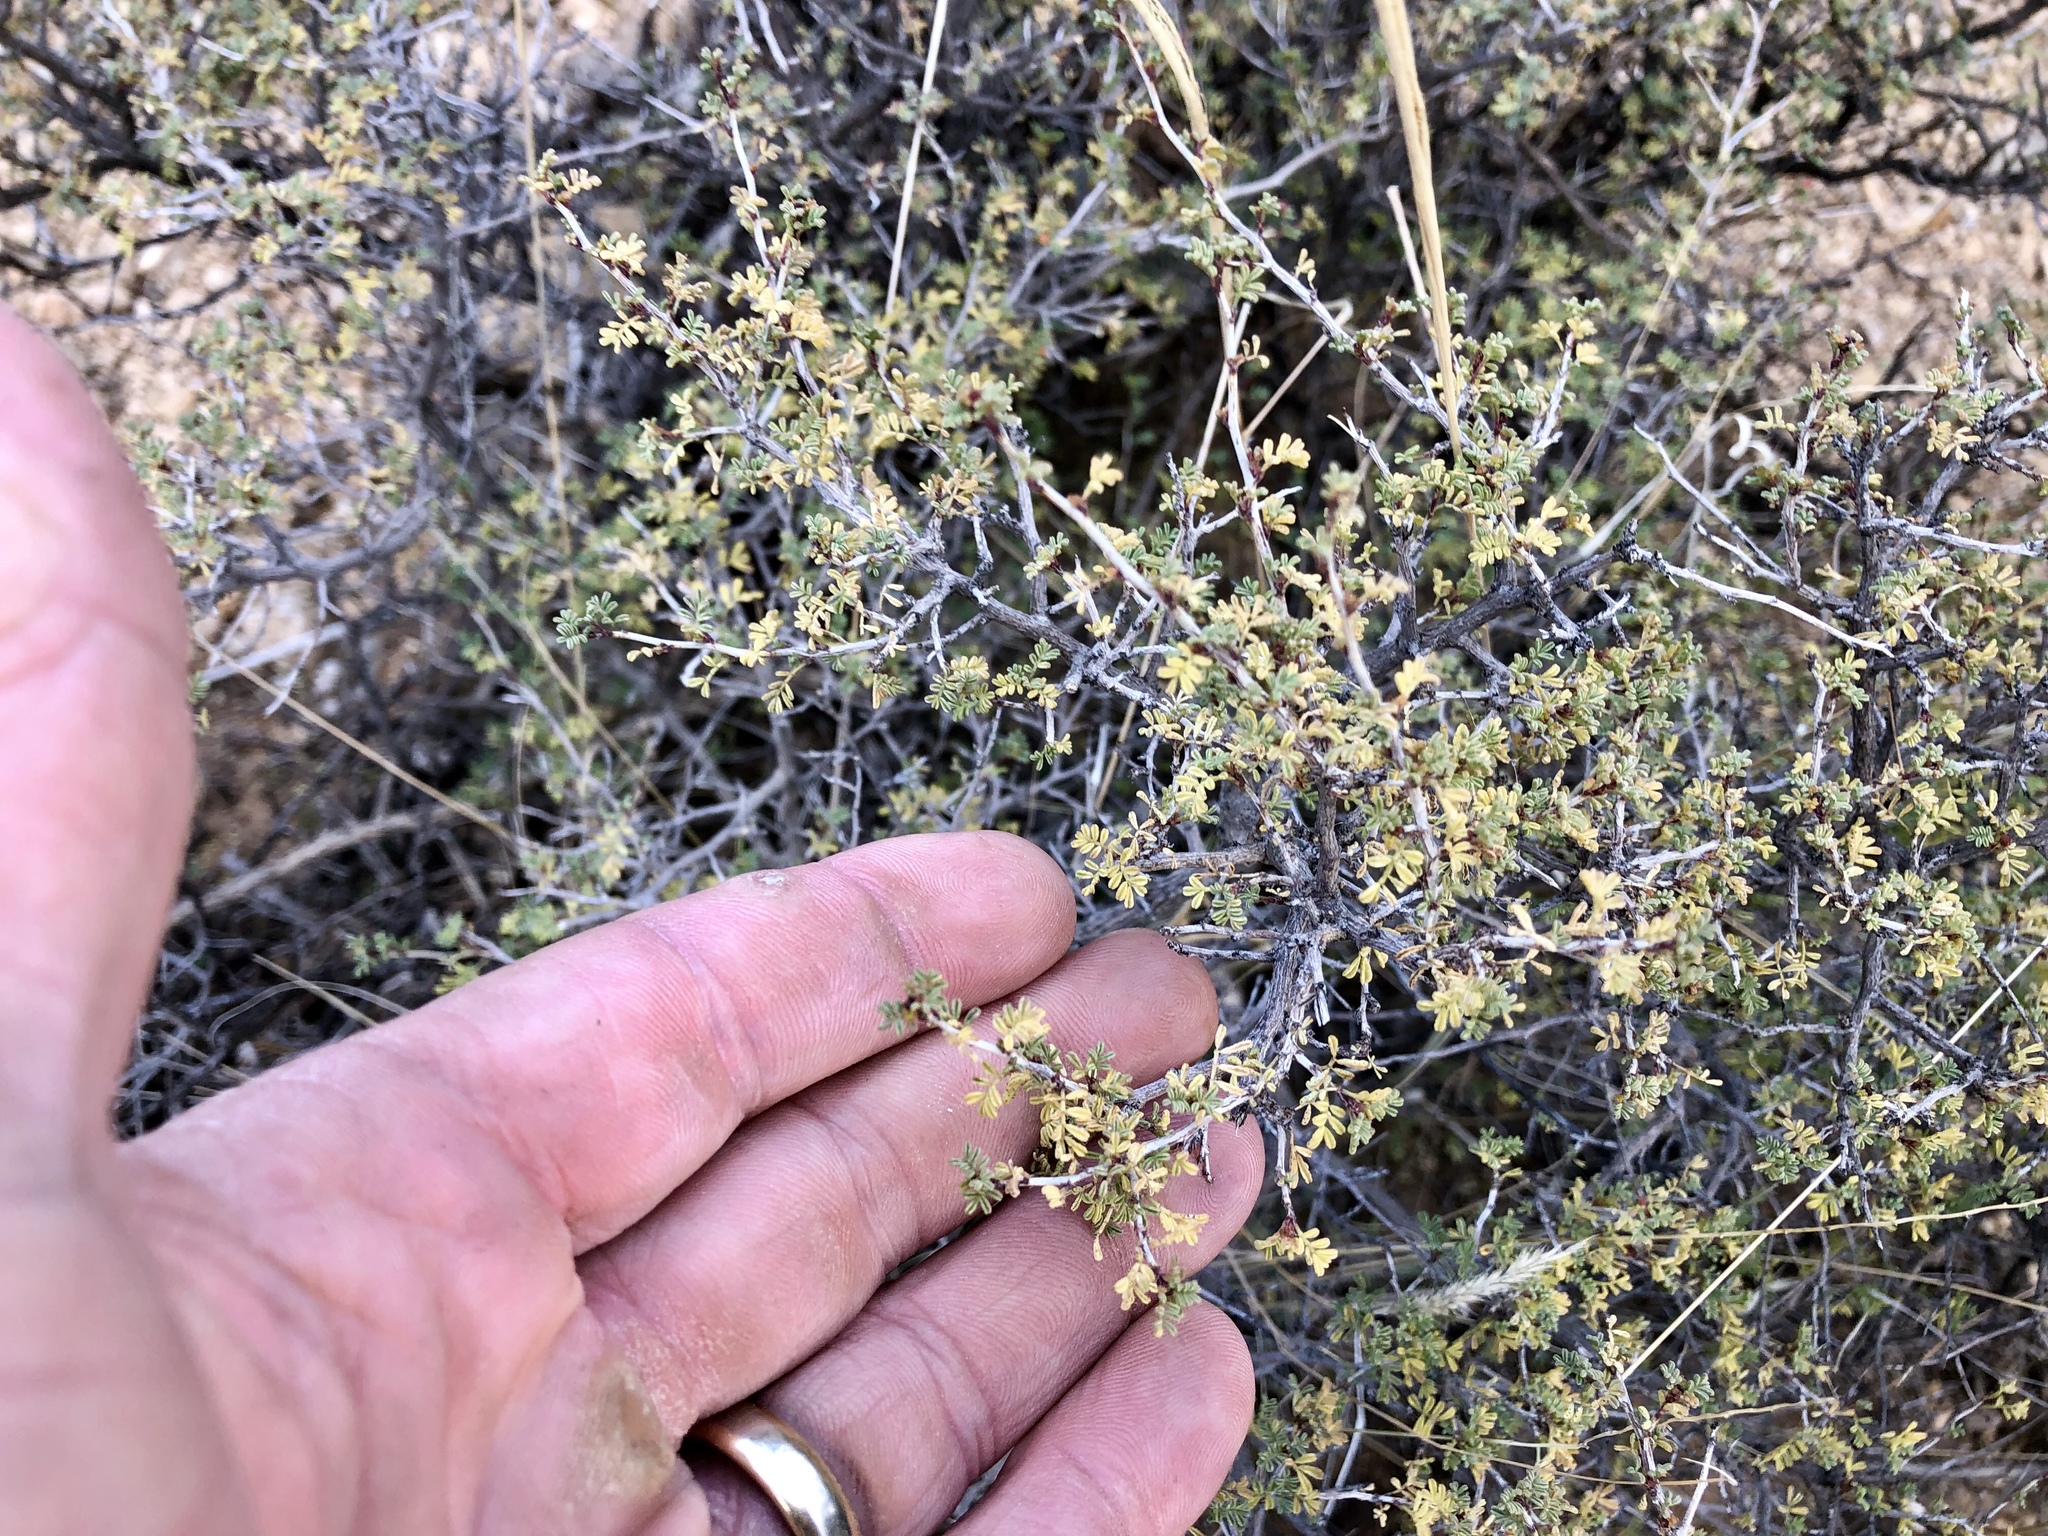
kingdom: Plantae
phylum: Tracheophyta
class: Magnoliopsida
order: Fabales
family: Fabaceae
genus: Dalea
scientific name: Dalea formosa
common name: Feather-plume dalea
